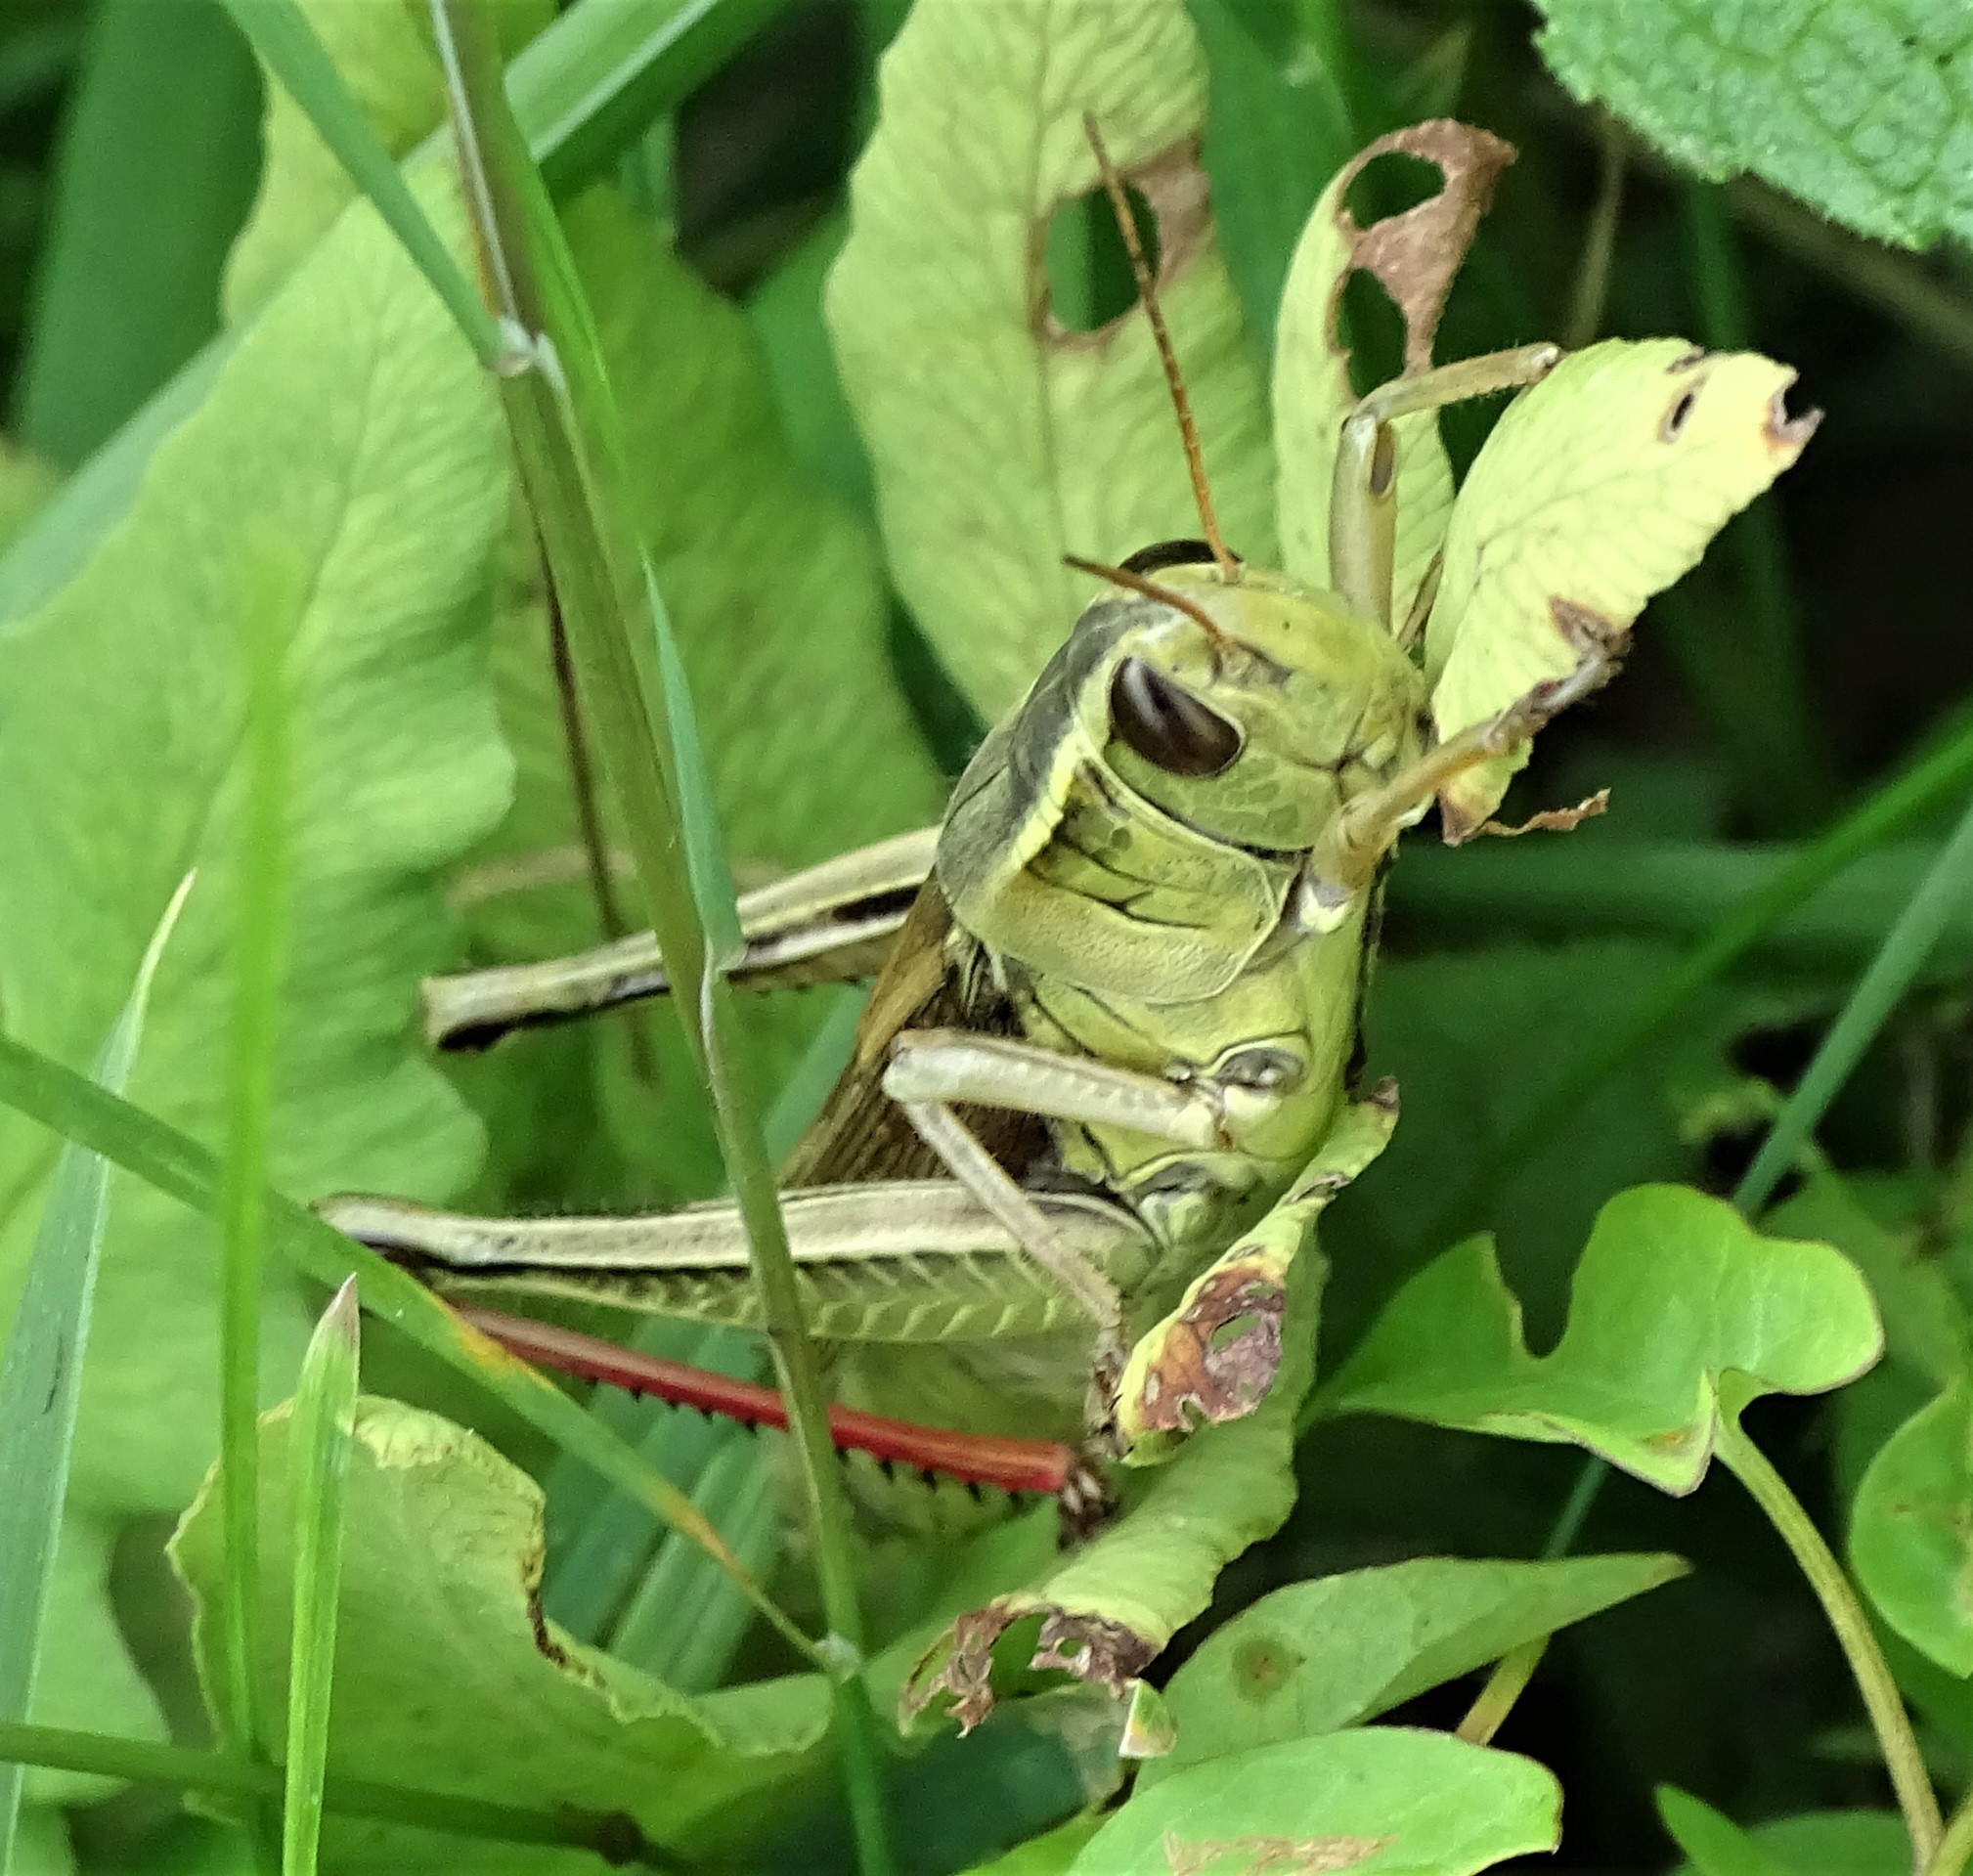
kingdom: Animalia
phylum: Arthropoda
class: Insecta
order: Orthoptera
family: Acrididae
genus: Melanoplus
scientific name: Melanoplus bivittatus
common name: Two-striped grasshopper
